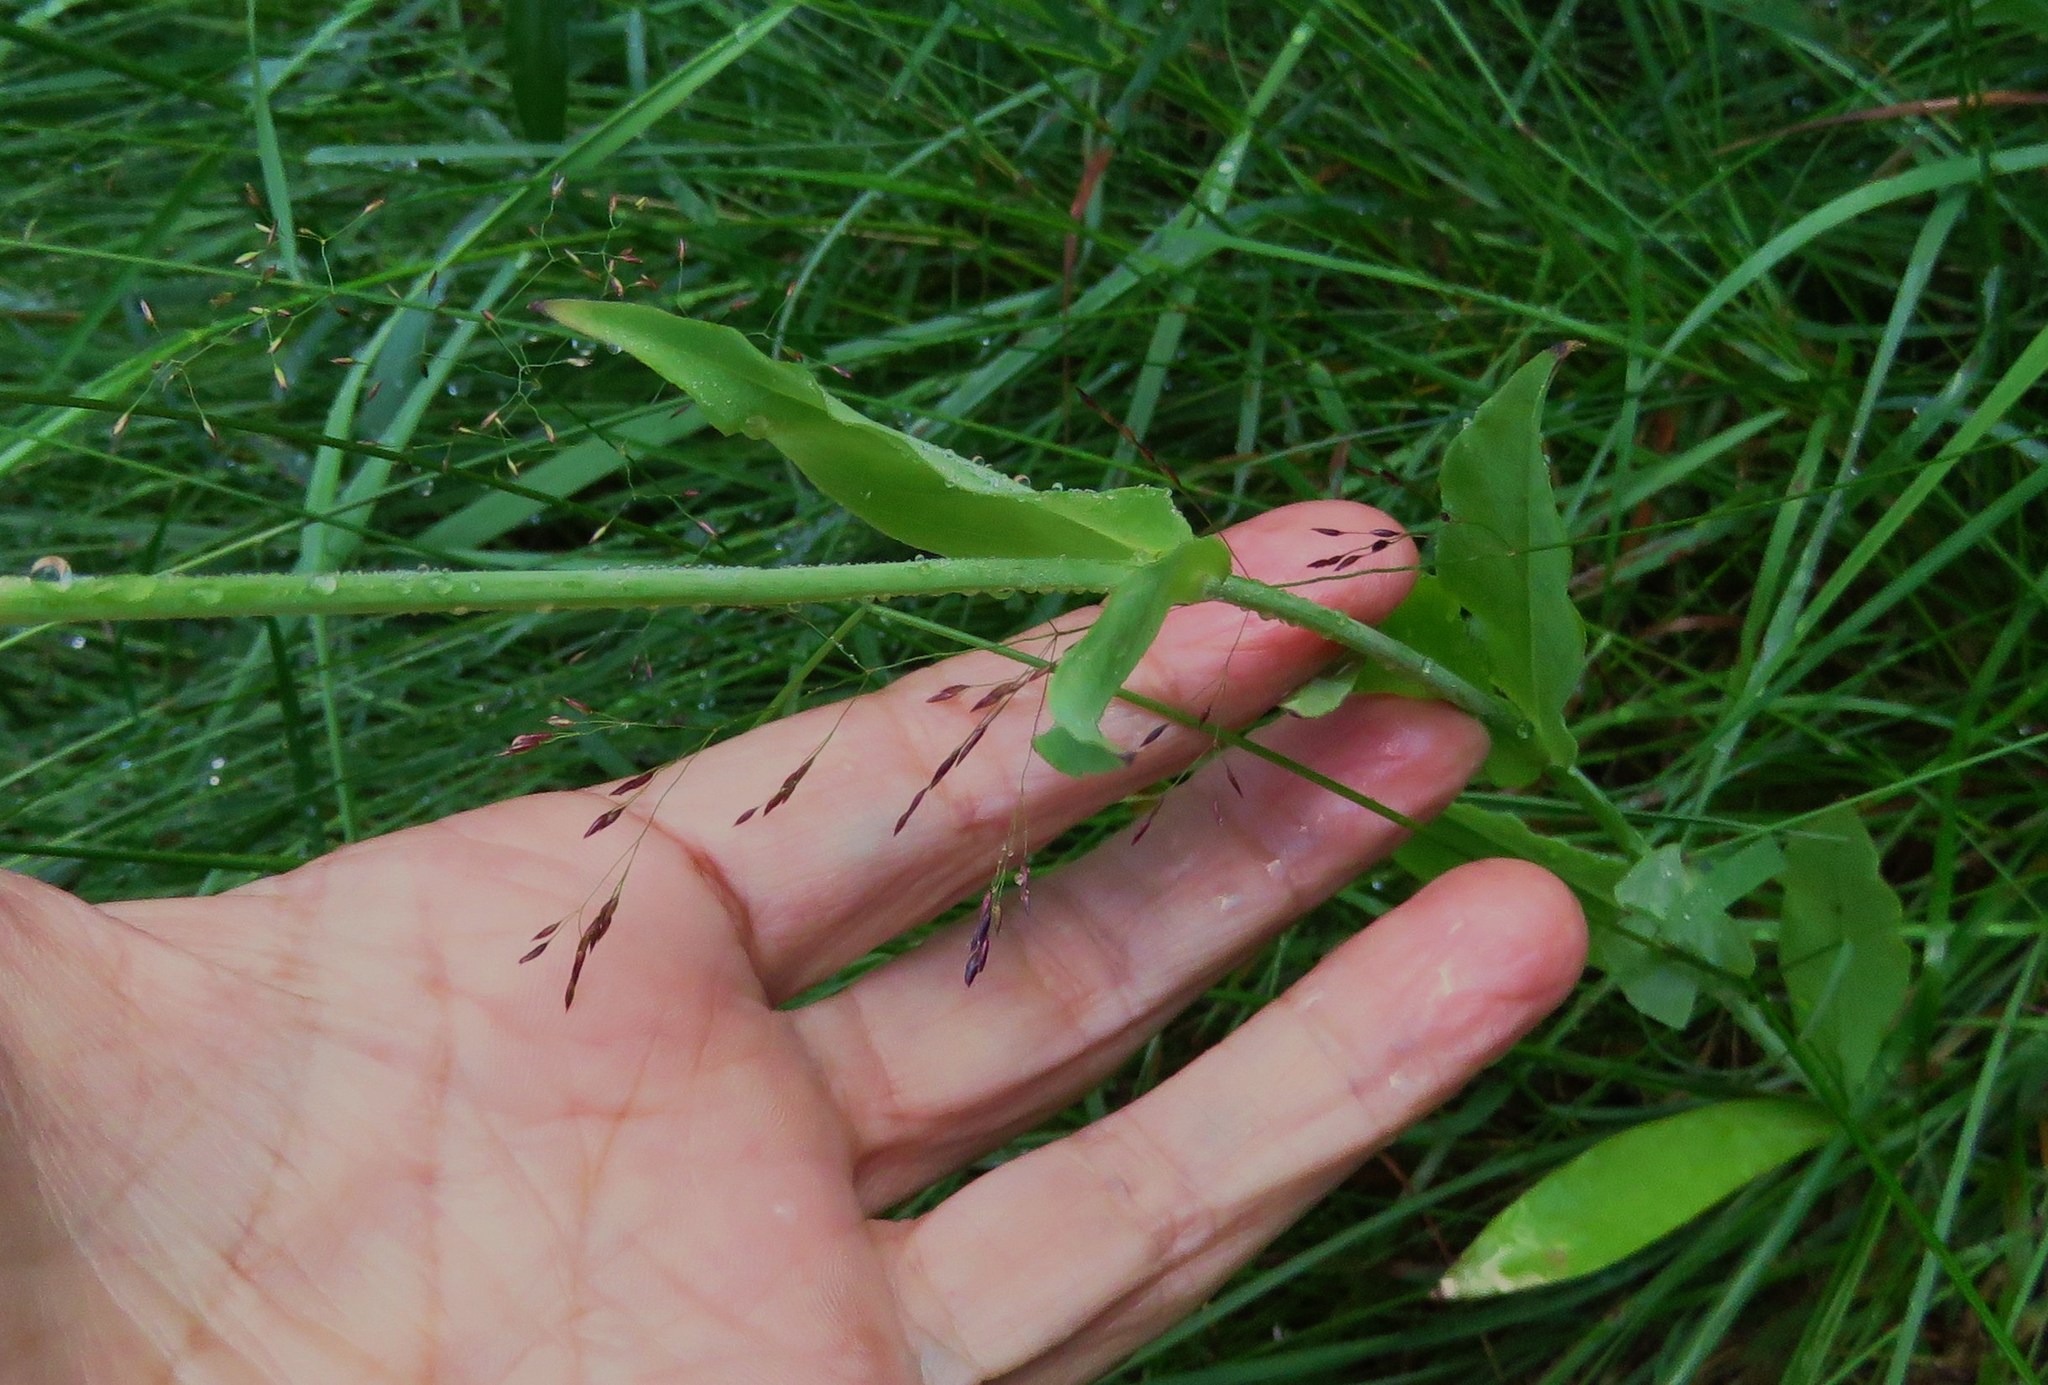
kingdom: Plantae
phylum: Tracheophyta
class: Magnoliopsida
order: Caryophyllales
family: Caryophyllaceae
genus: Silene
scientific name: Silene vulgaris
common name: Bladder campion
